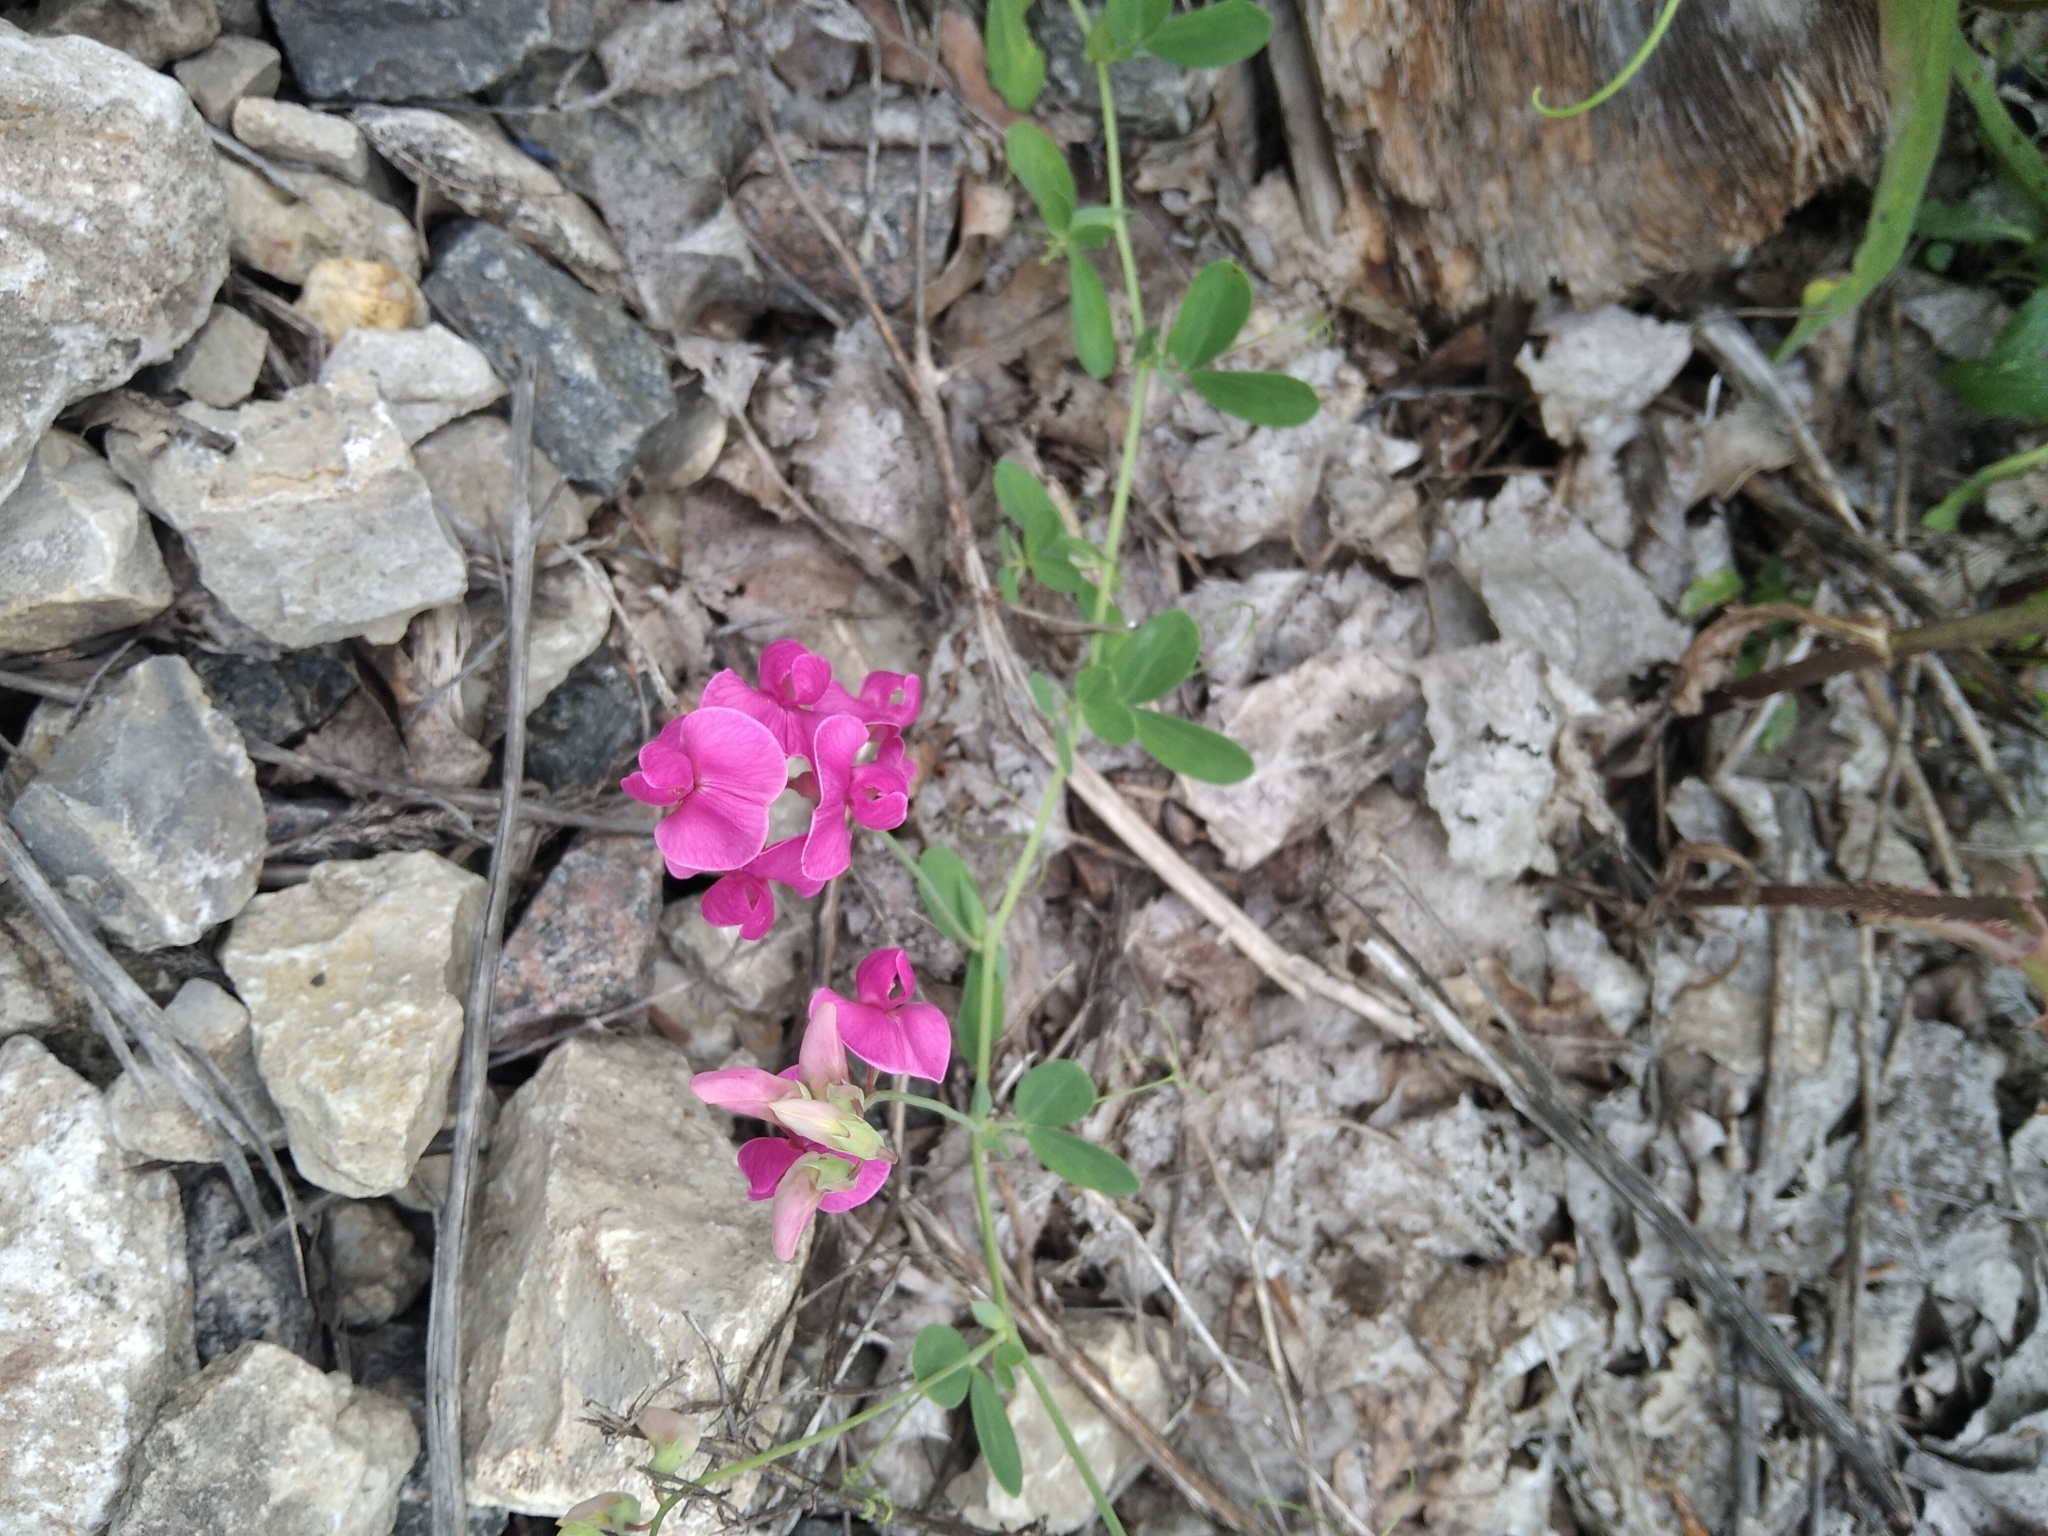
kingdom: Plantae
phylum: Tracheophyta
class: Magnoliopsida
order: Fabales
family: Fabaceae
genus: Lathyrus
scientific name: Lathyrus tuberosus
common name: Tuberous pea
